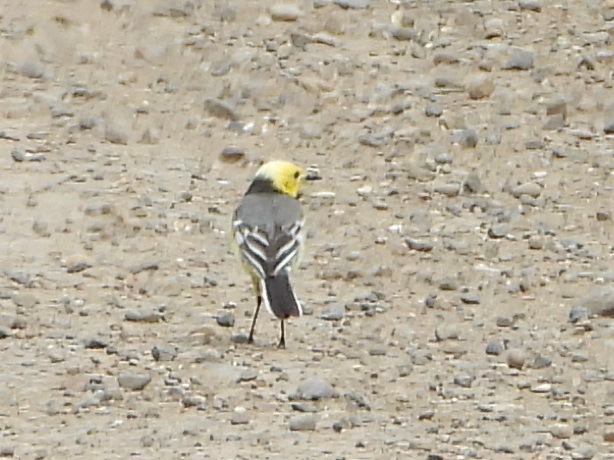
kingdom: Animalia
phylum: Chordata
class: Aves
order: Passeriformes
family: Motacillidae
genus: Motacilla
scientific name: Motacilla citreola
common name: Citrine wagtail
